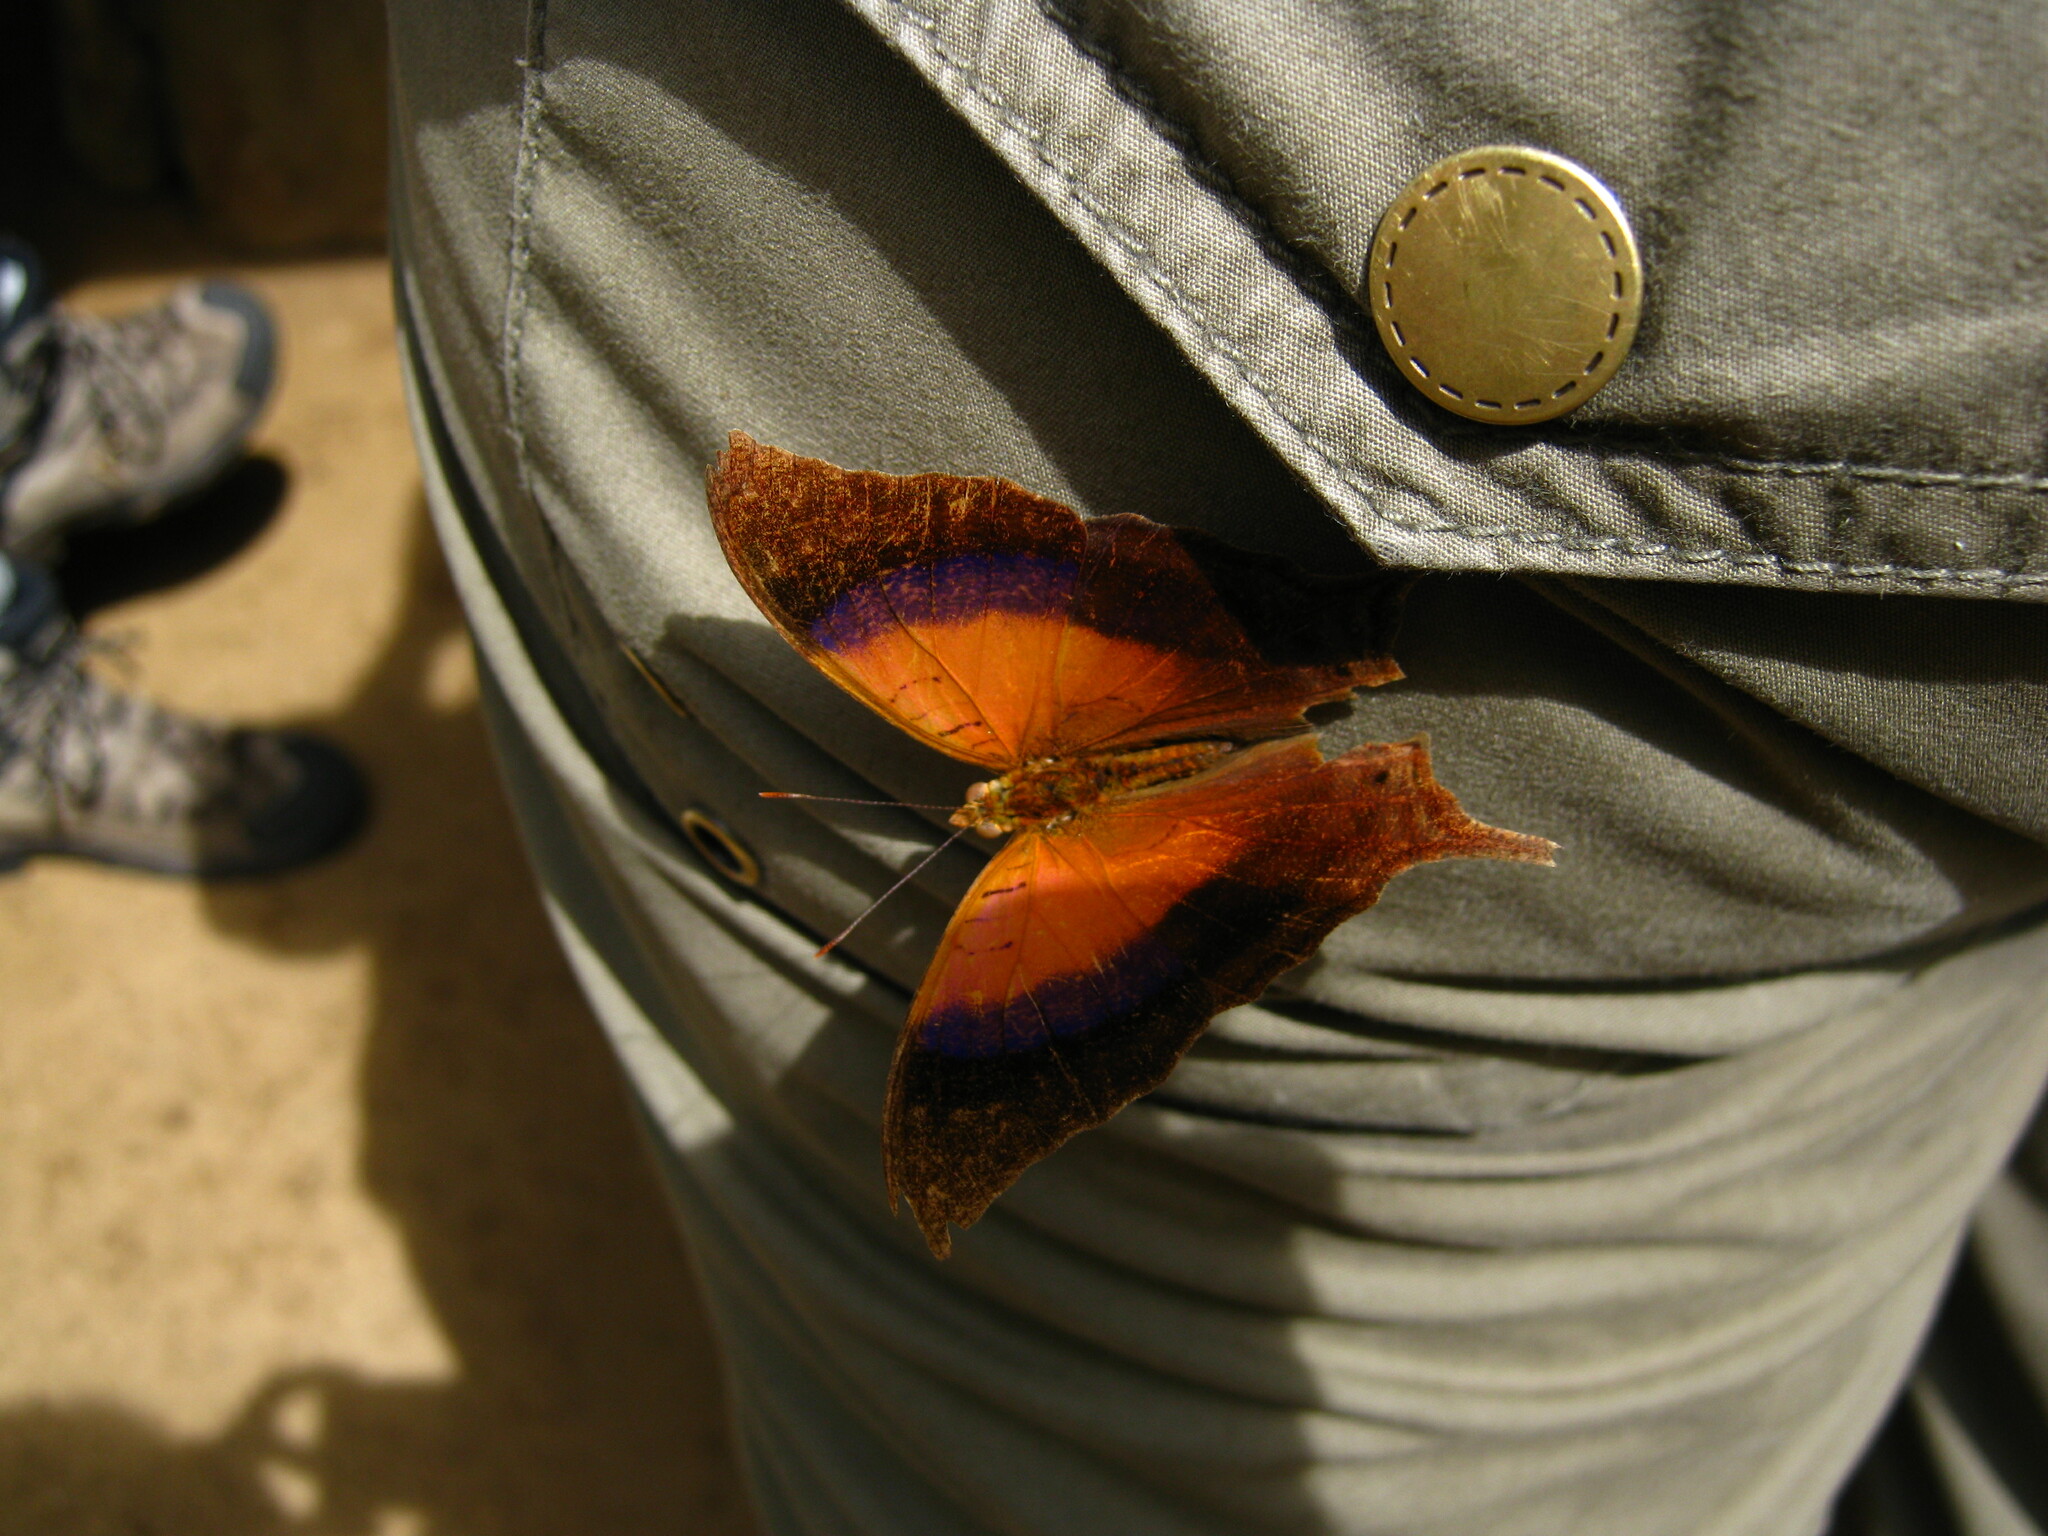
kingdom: Animalia
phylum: Arthropoda
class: Insecta
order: Lepidoptera
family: Nymphalidae
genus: Marpesia
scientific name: Marpesia furcula
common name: Sunset daggerwing
